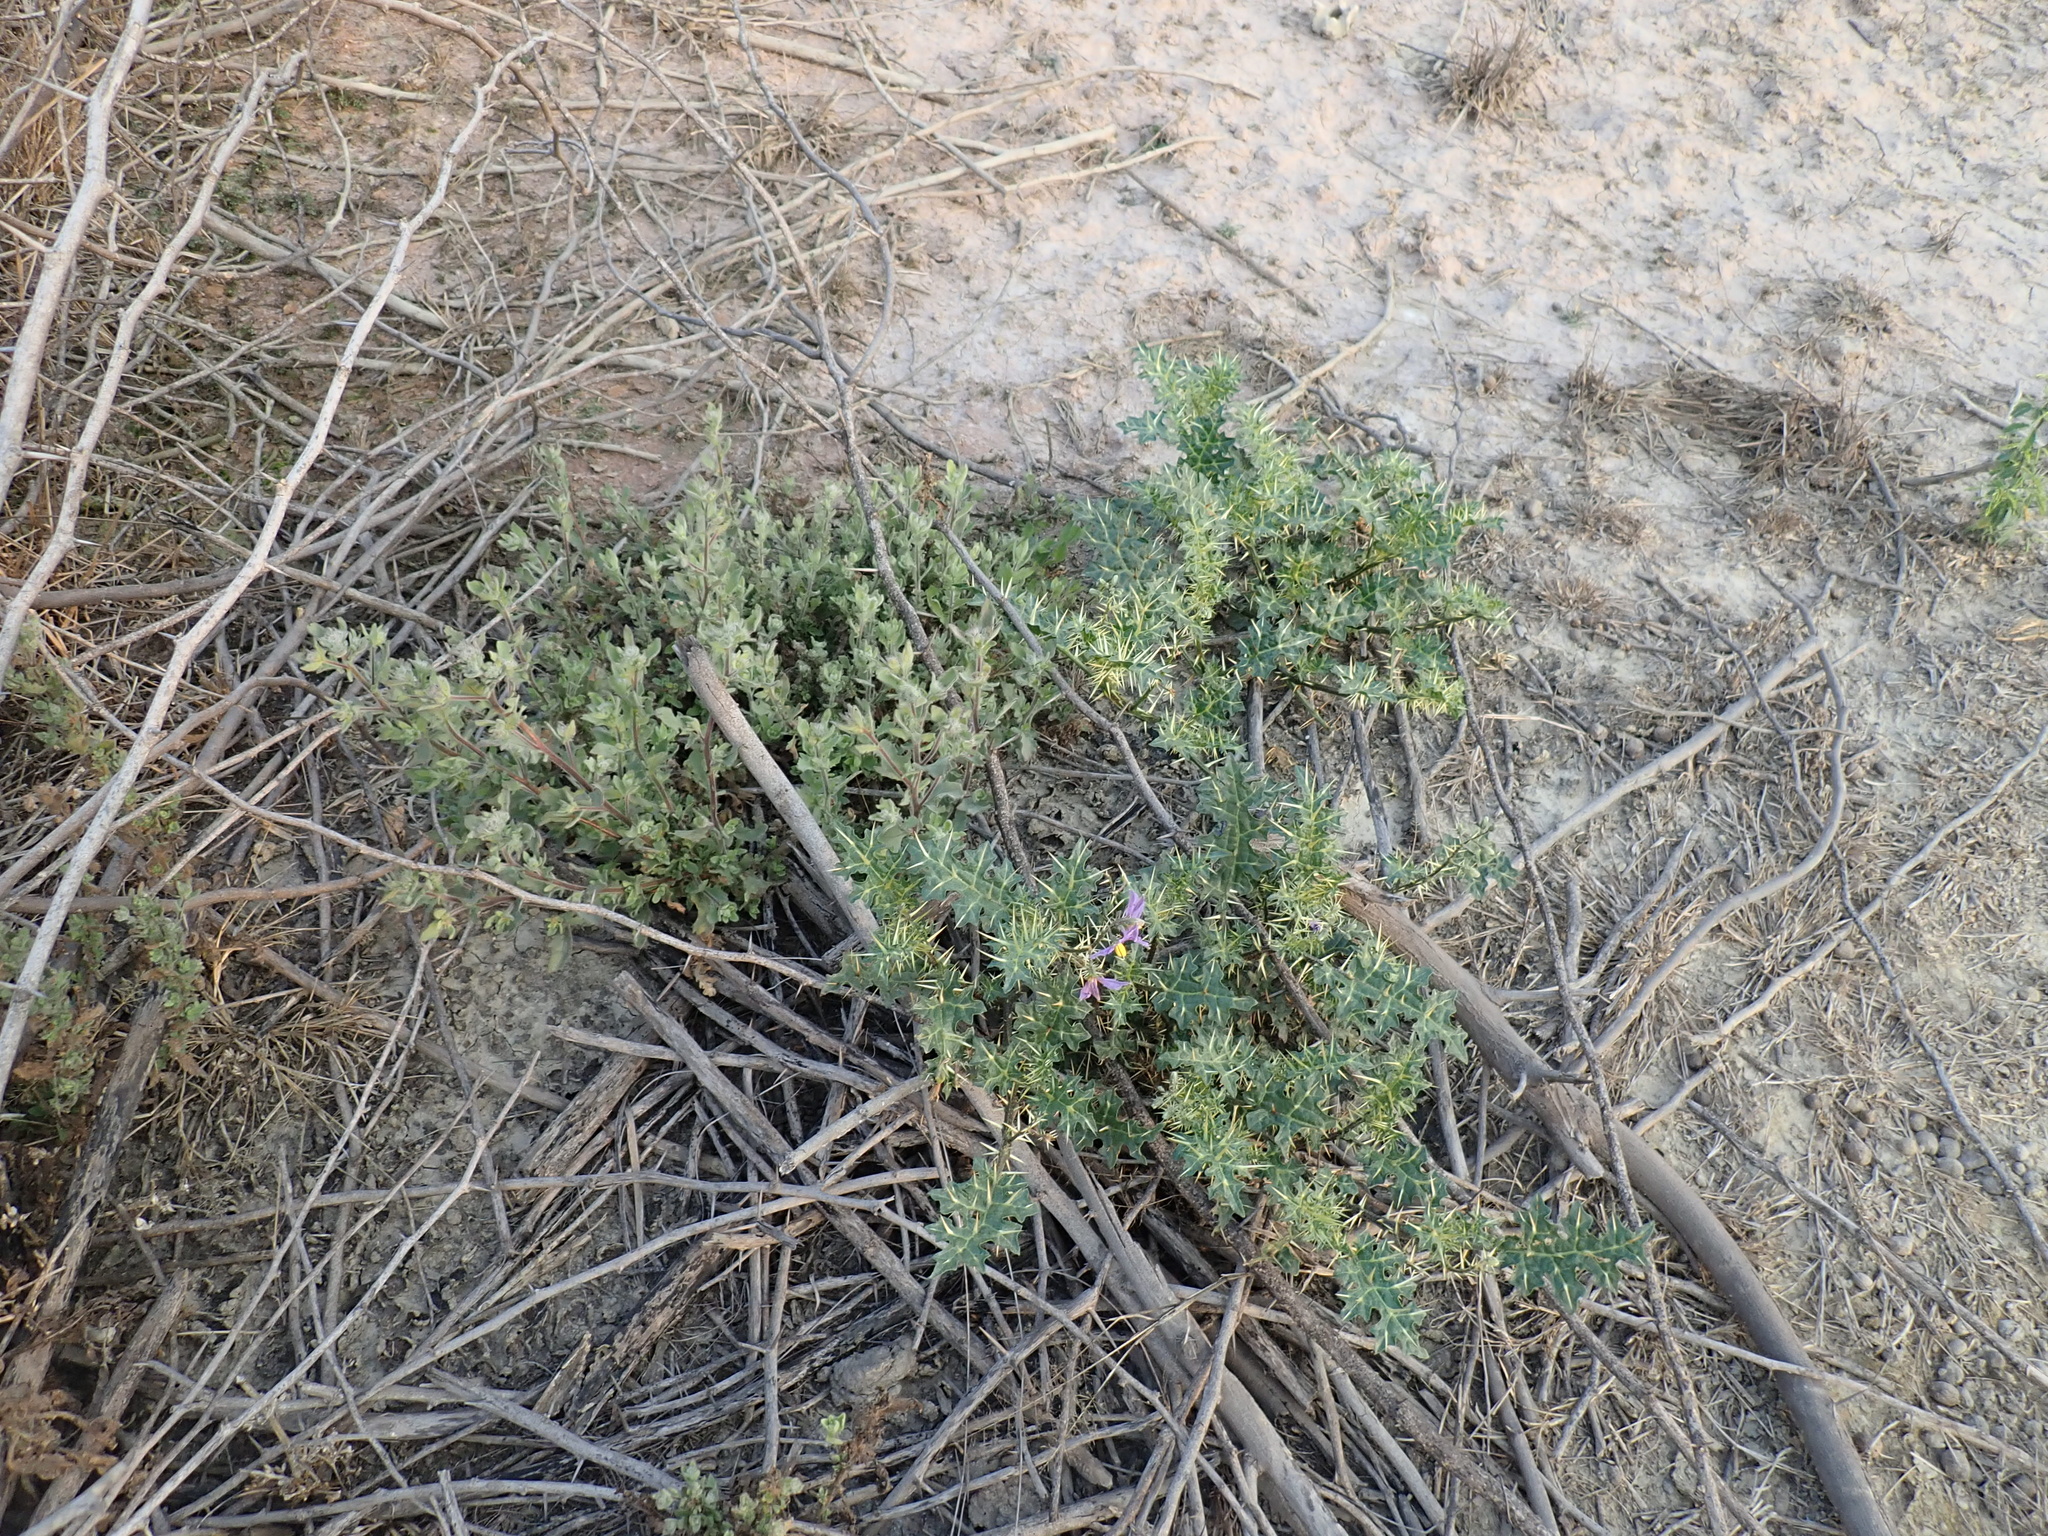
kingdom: Plantae
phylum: Tracheophyta
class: Magnoliopsida
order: Solanales
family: Solanaceae
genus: Solanum
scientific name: Solanum virginianum
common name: Surattense nightshade
